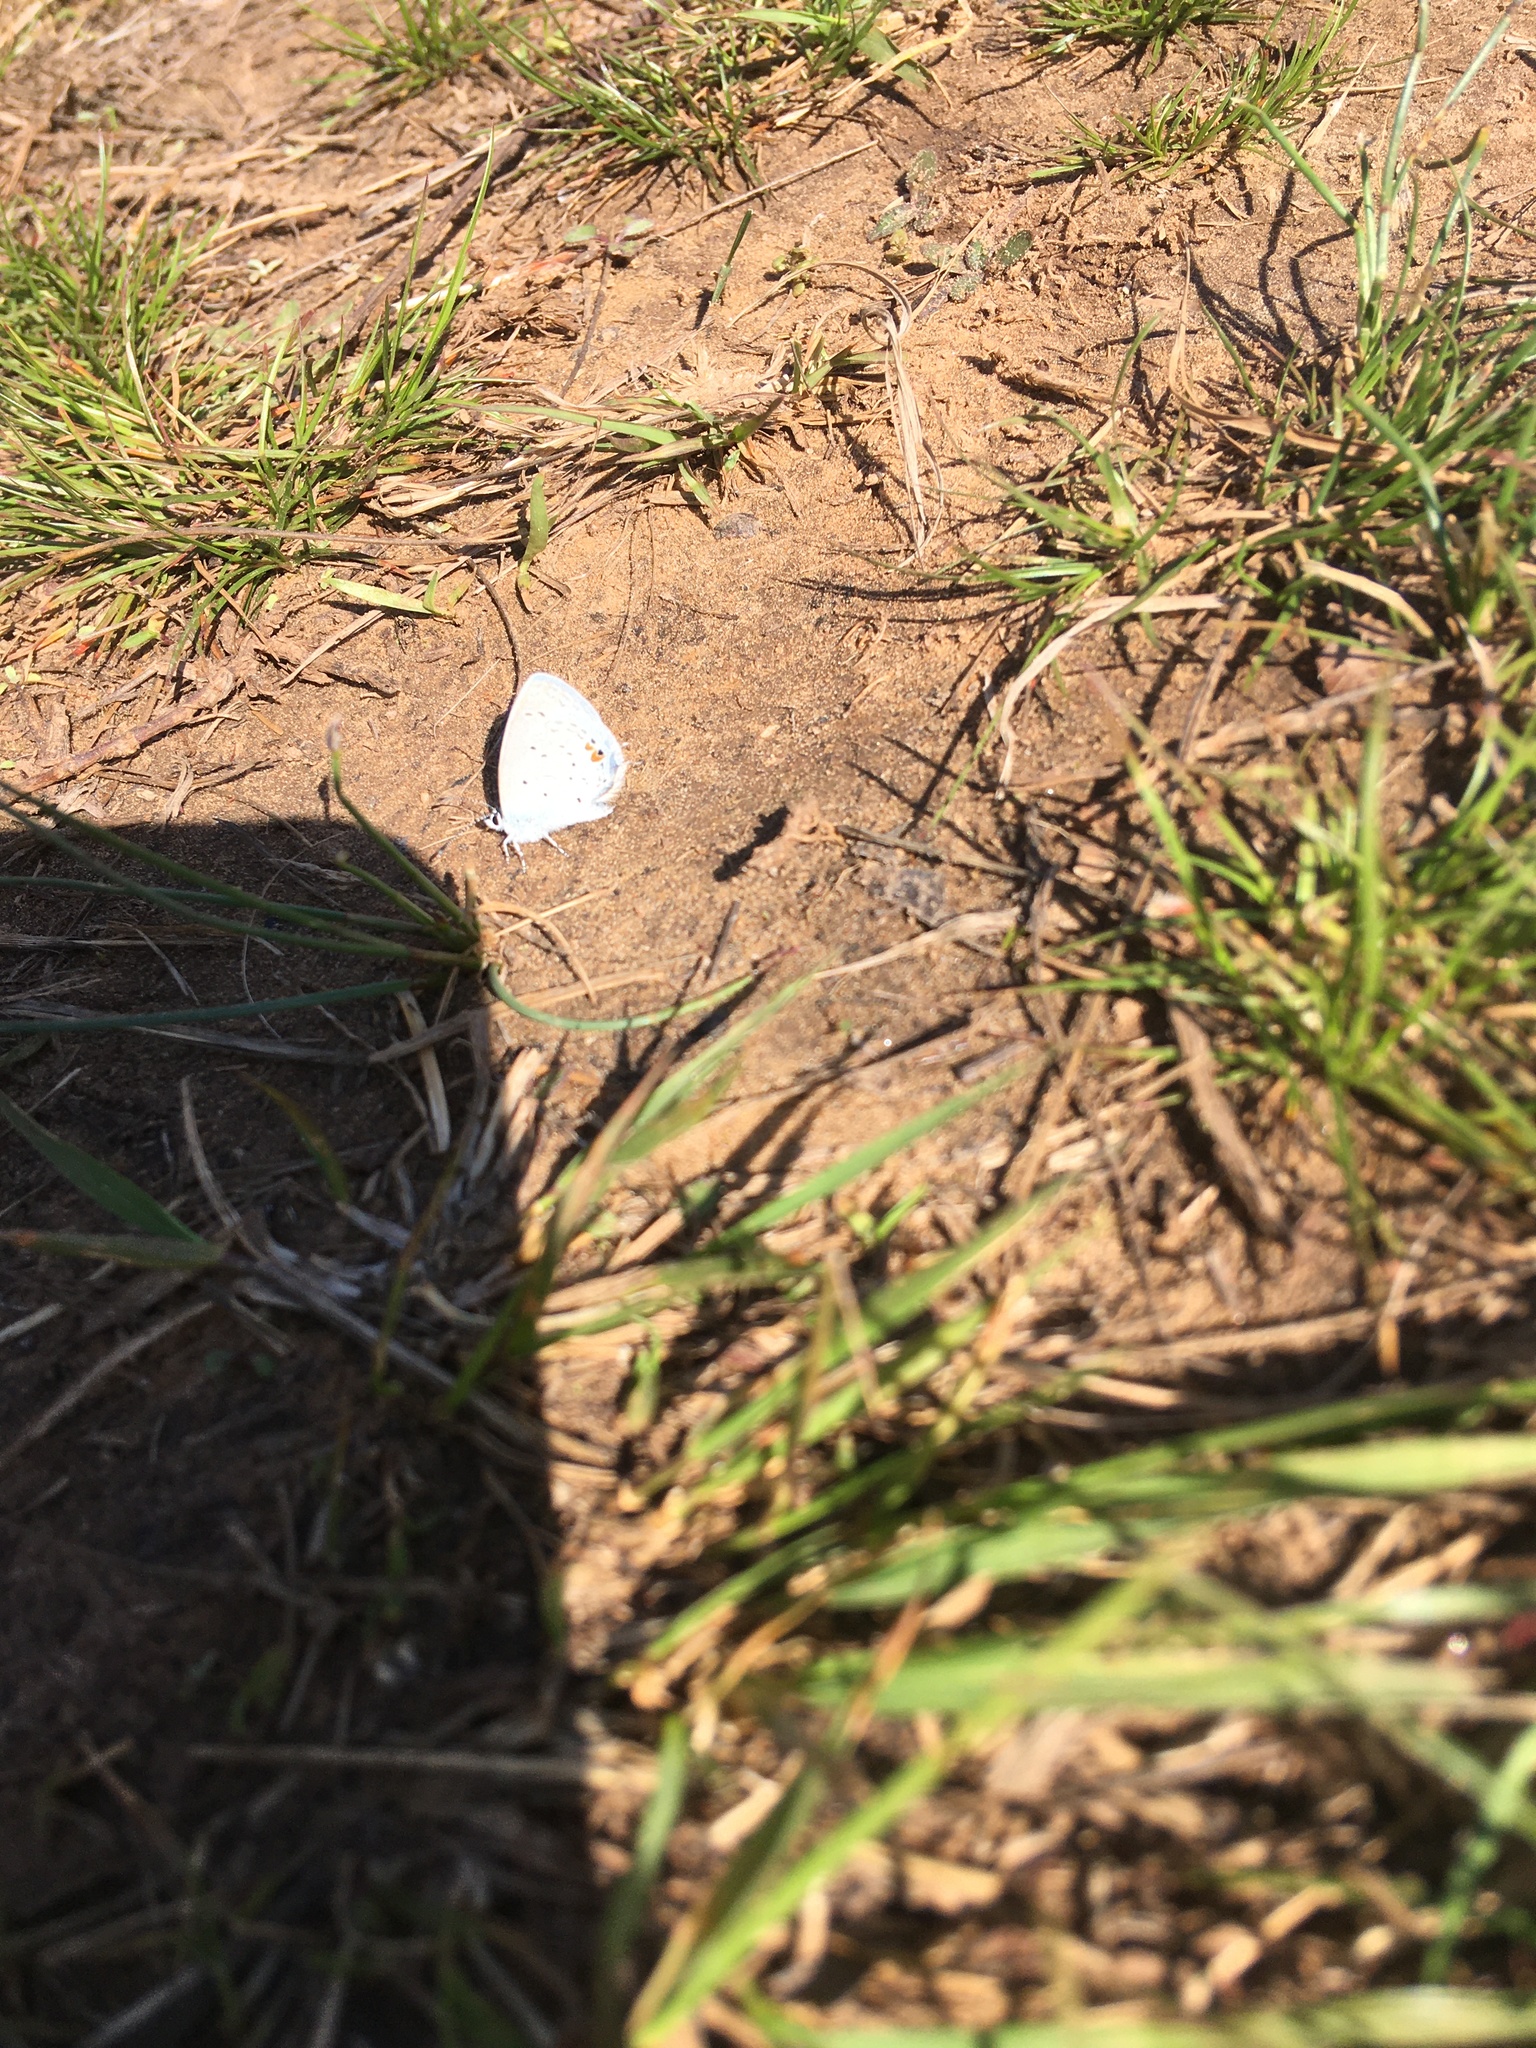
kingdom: Animalia
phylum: Arthropoda
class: Insecta
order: Lepidoptera
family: Lycaenidae
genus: Elkalyce
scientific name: Elkalyce comyntas
